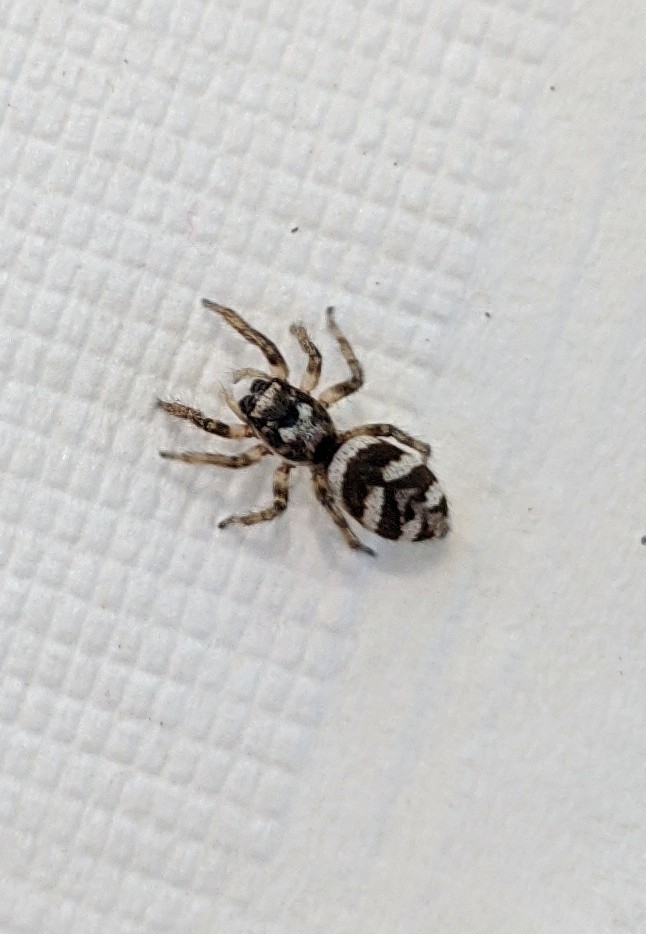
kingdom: Animalia
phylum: Arthropoda
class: Arachnida
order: Araneae
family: Salticidae
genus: Salticus
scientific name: Salticus scenicus
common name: Zebra jumper
